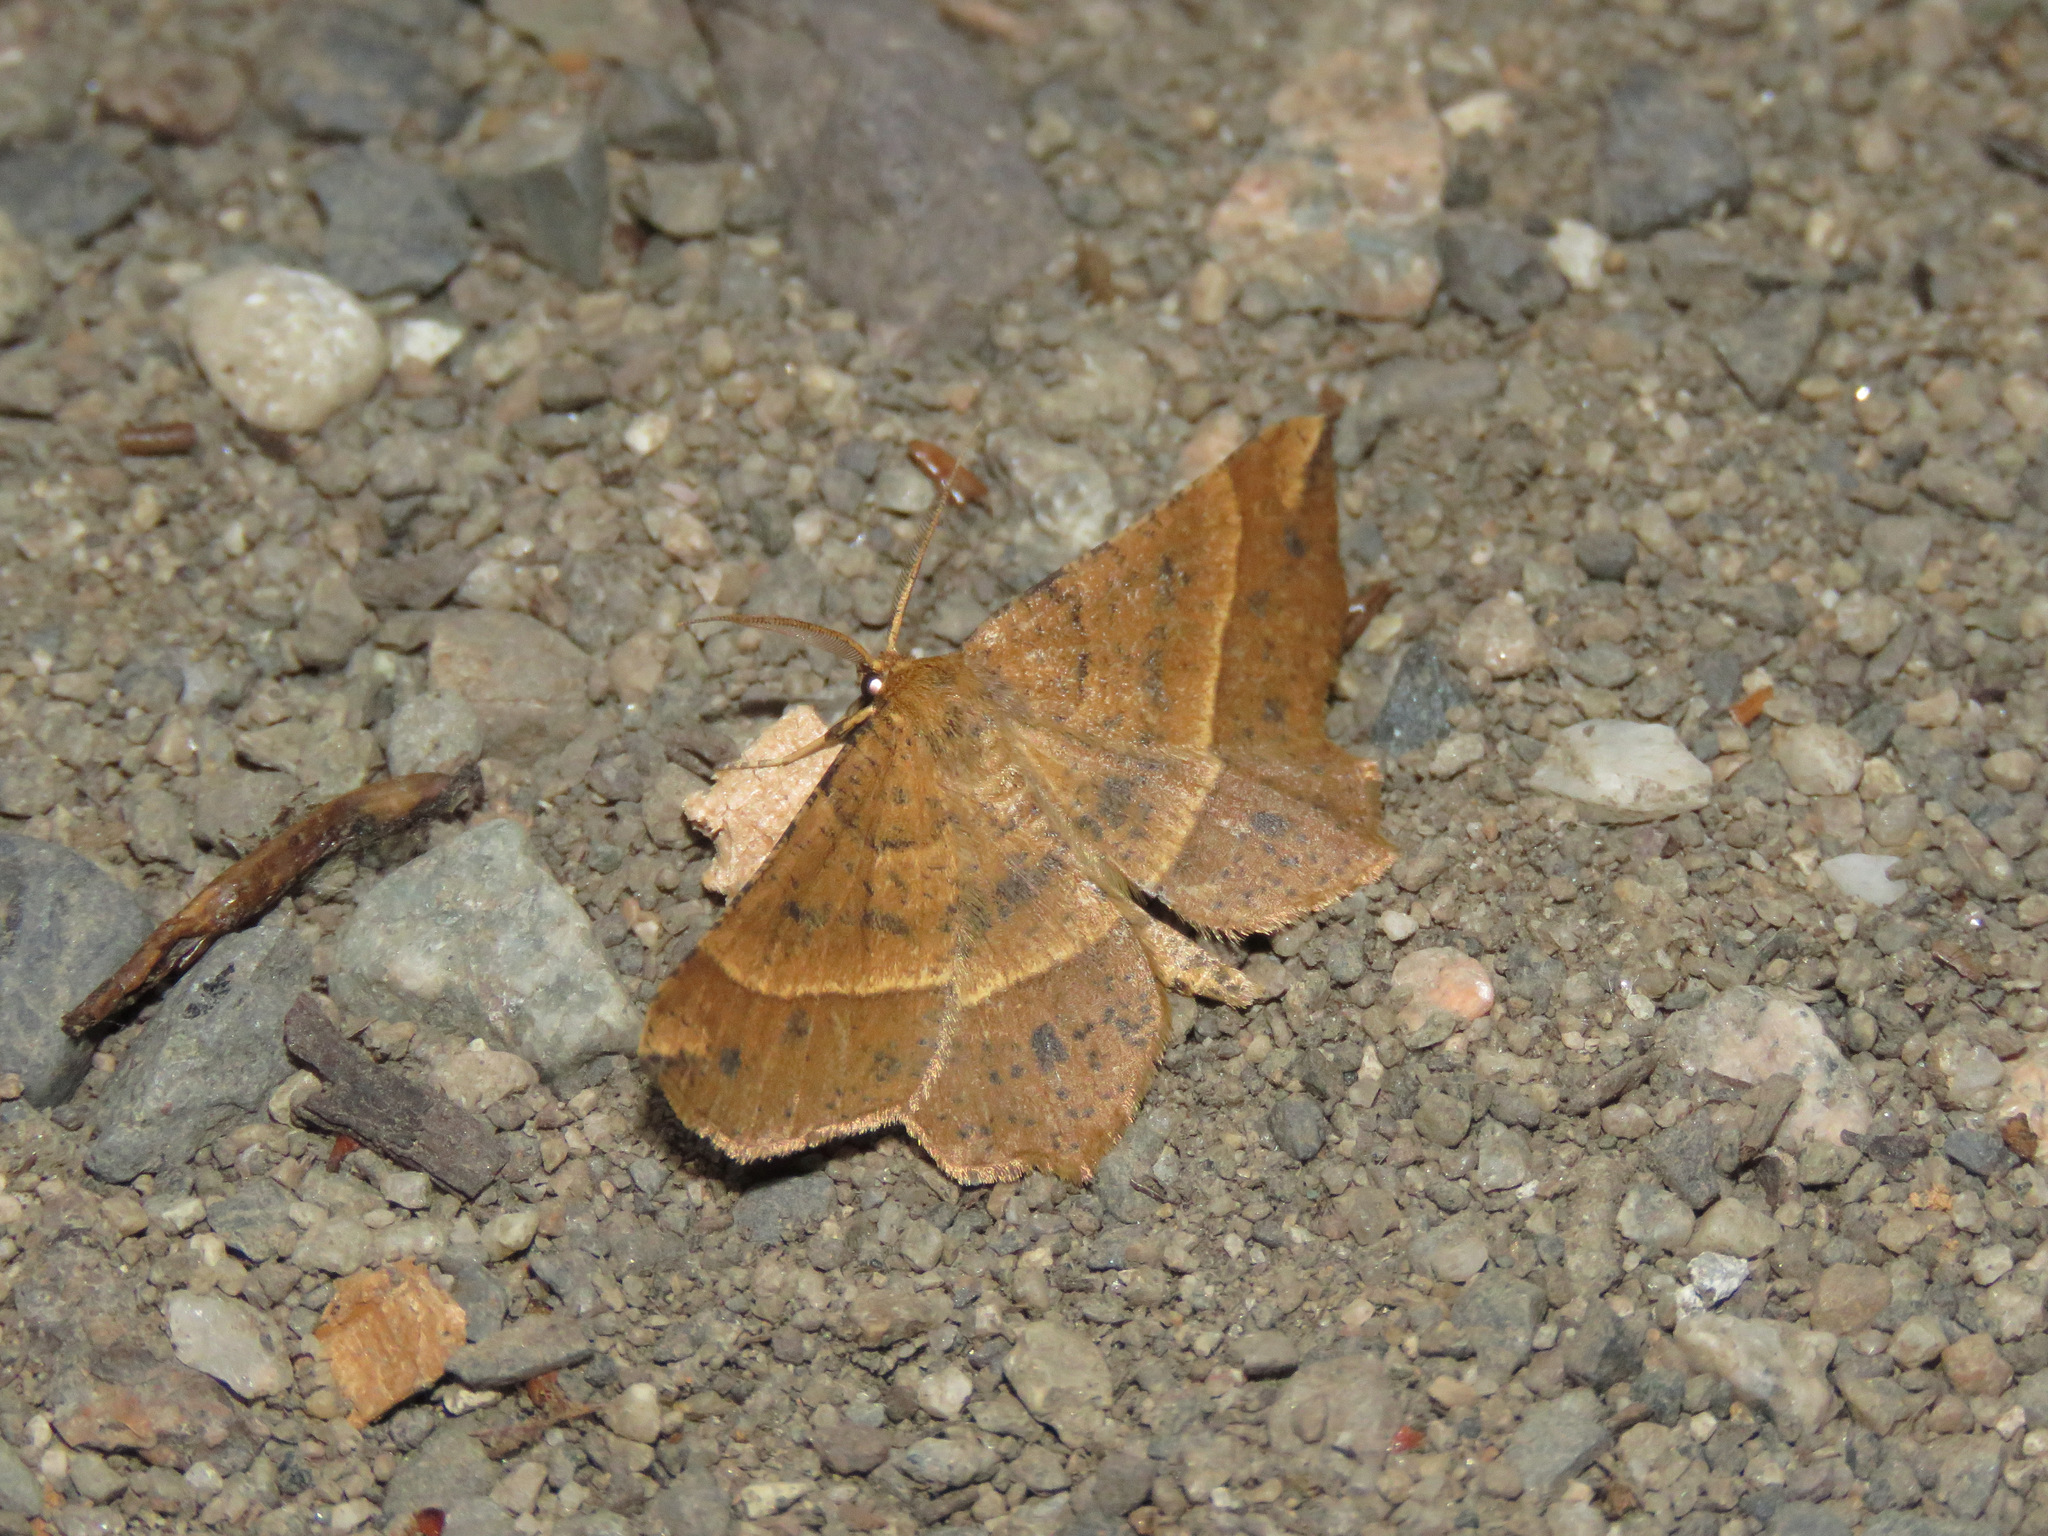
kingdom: Animalia
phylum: Arthropoda
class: Insecta
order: Lepidoptera
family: Geometridae
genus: Euchlaena
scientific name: Euchlaena tigrinaria
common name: Mottled euchlaena moth
